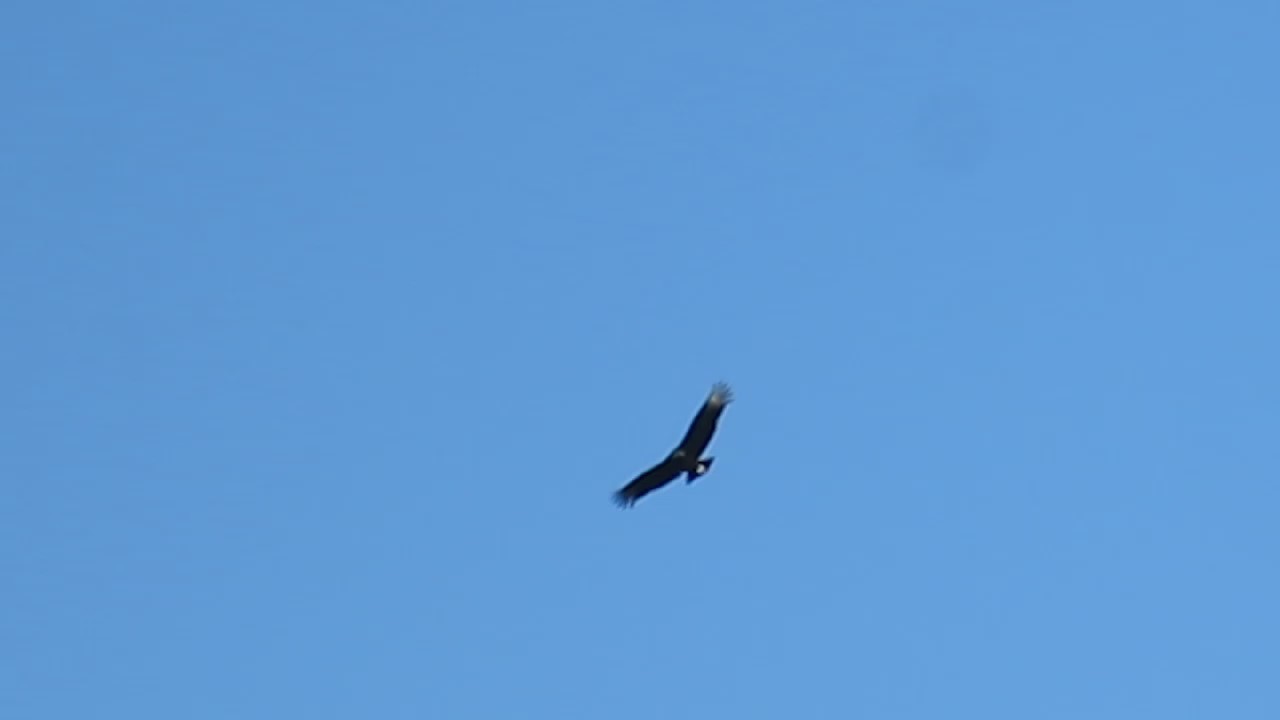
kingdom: Animalia
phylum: Chordata
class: Aves
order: Accipitriformes
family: Cathartidae
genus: Coragyps
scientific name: Coragyps atratus
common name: Black vulture
